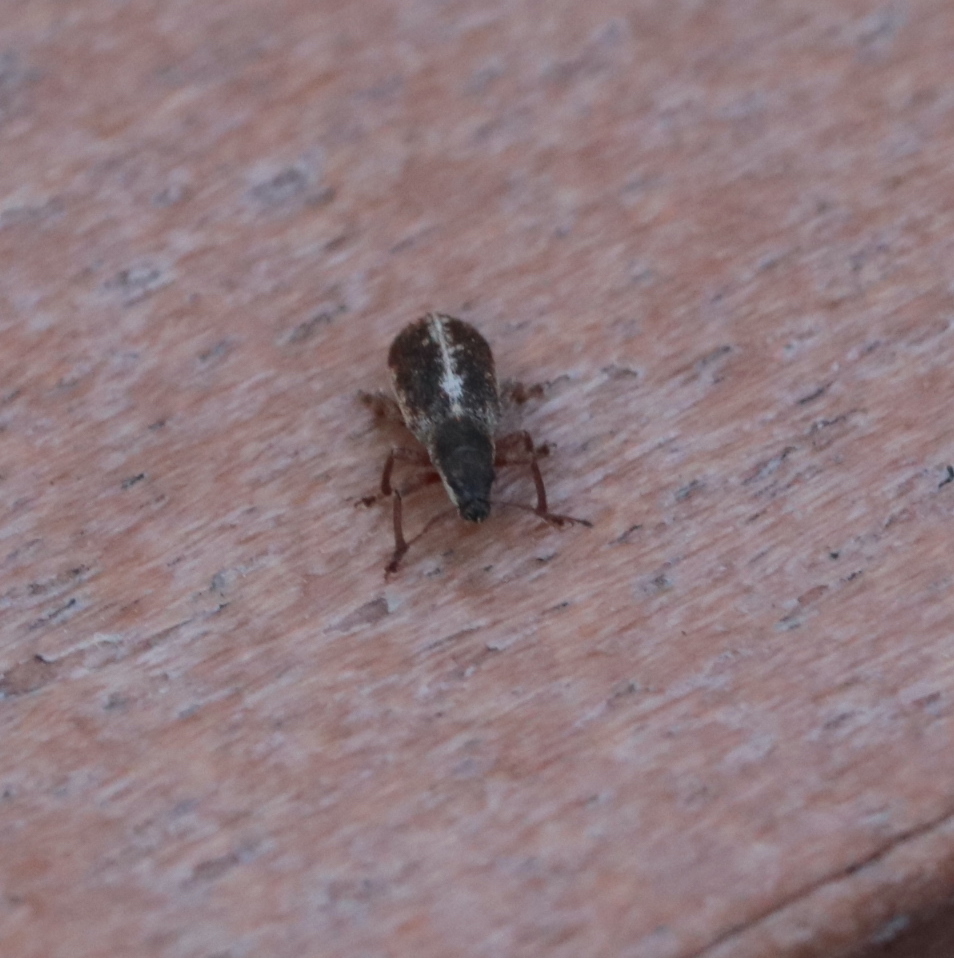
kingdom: Animalia
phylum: Arthropoda
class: Insecta
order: Coleoptera
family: Curculionidae
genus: Pachyrhinus
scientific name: Pachyrhinus californicus
